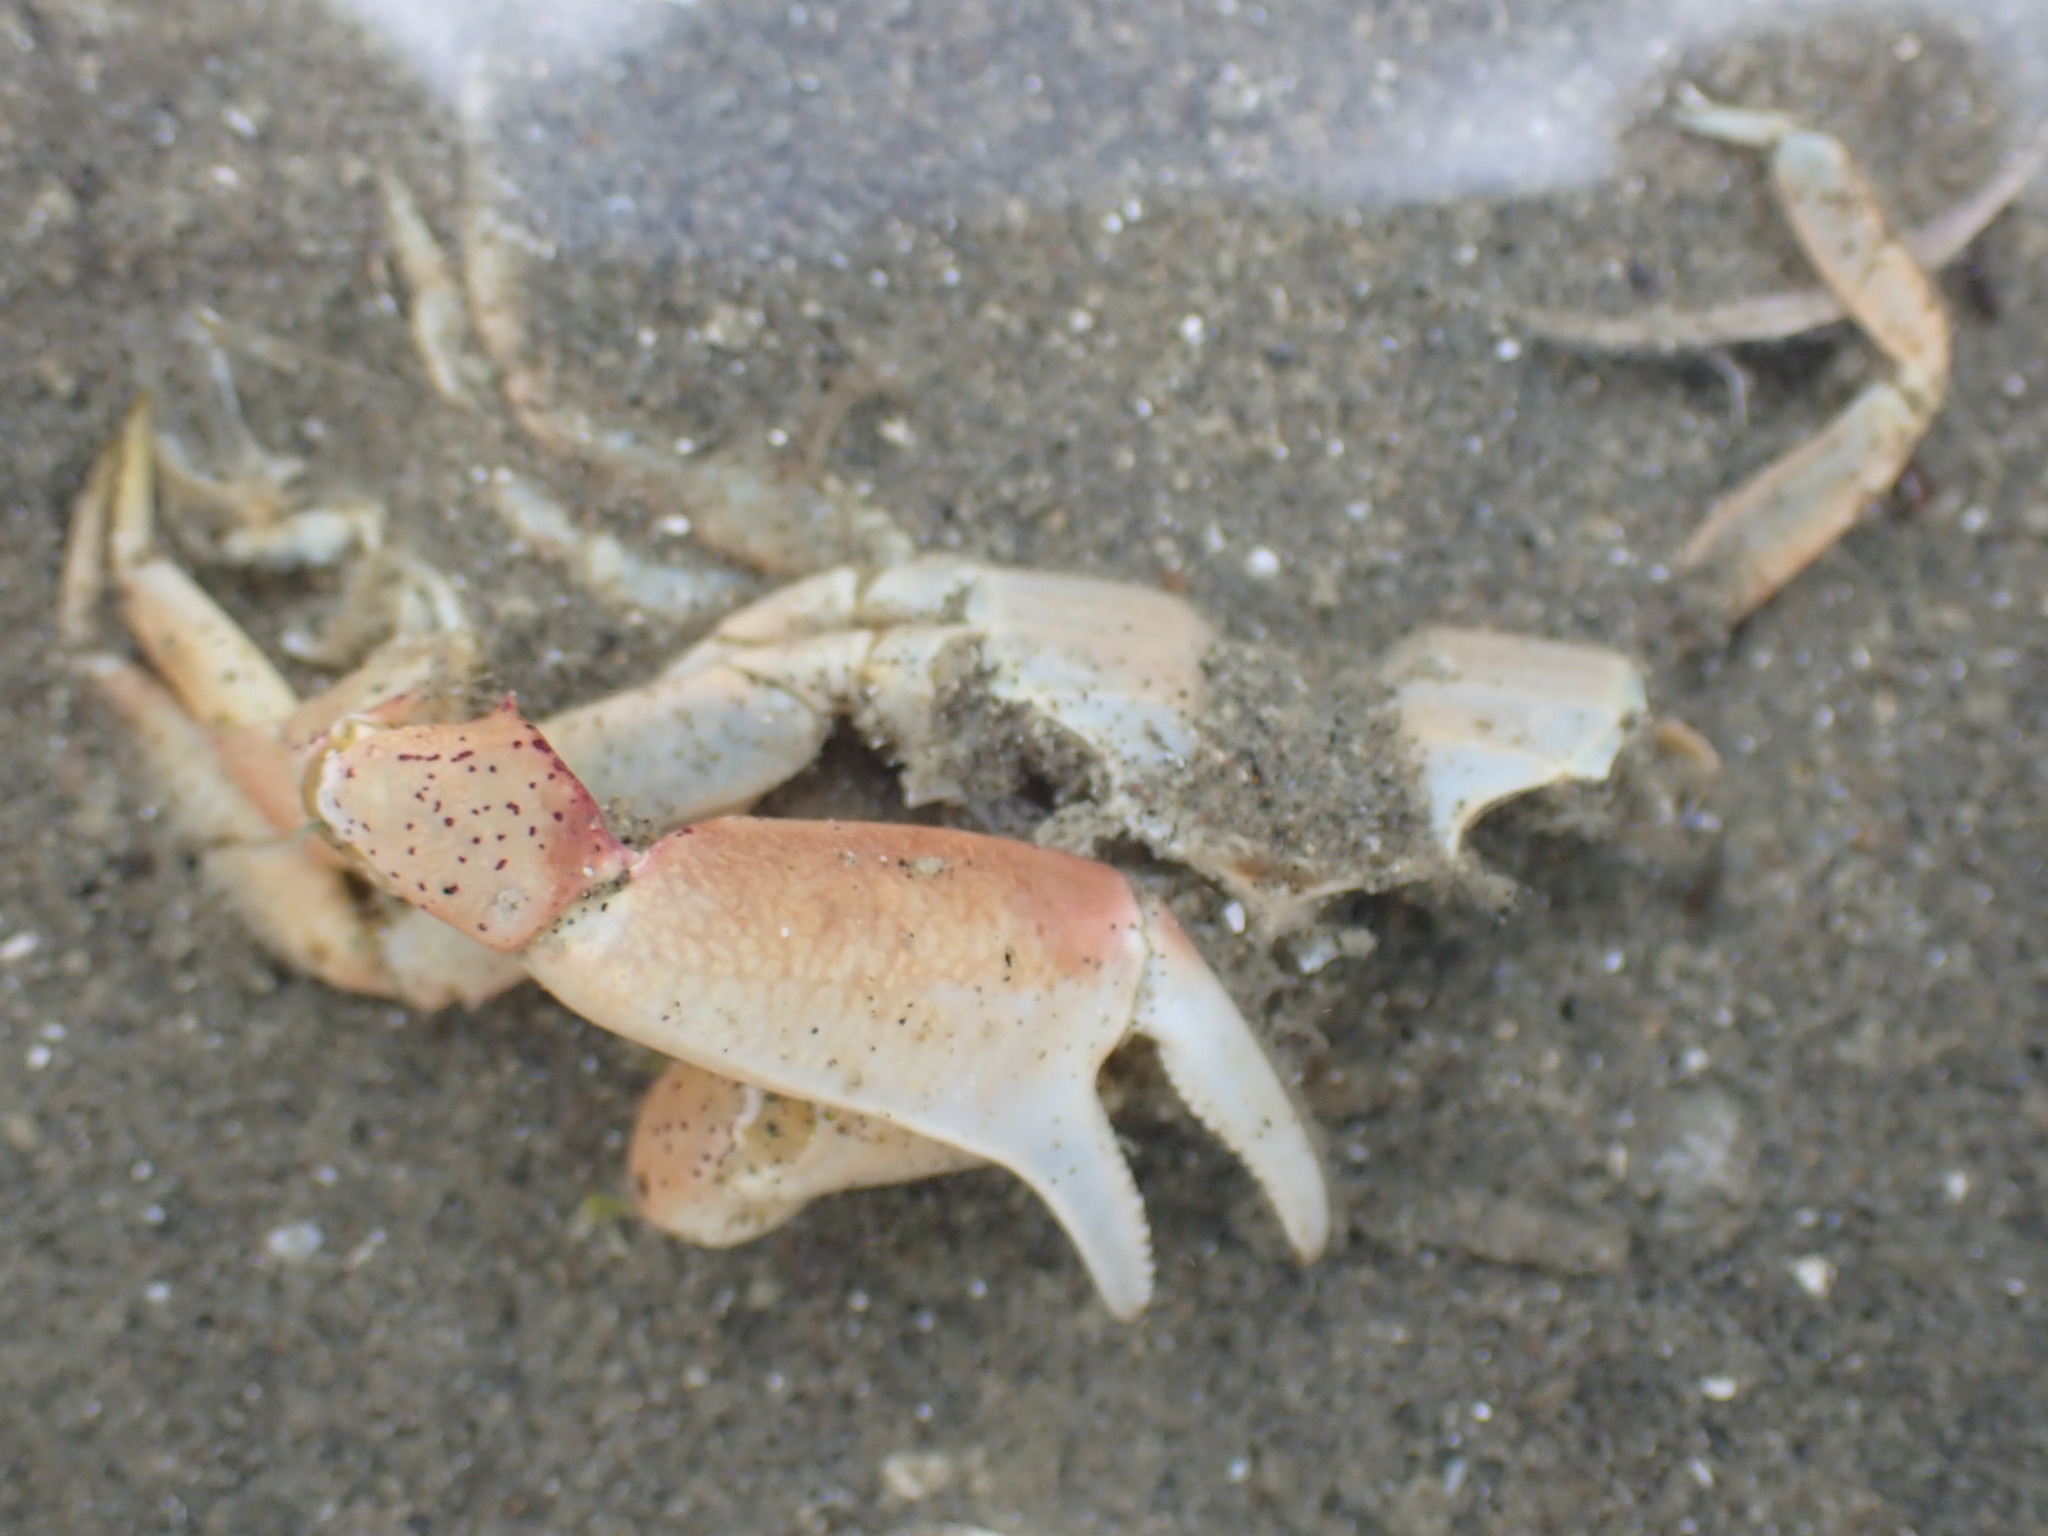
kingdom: Animalia
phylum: Arthropoda
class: Malacostraca
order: Decapoda
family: Macrophthalmidae
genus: Hemiplax
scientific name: Hemiplax hirtipes
